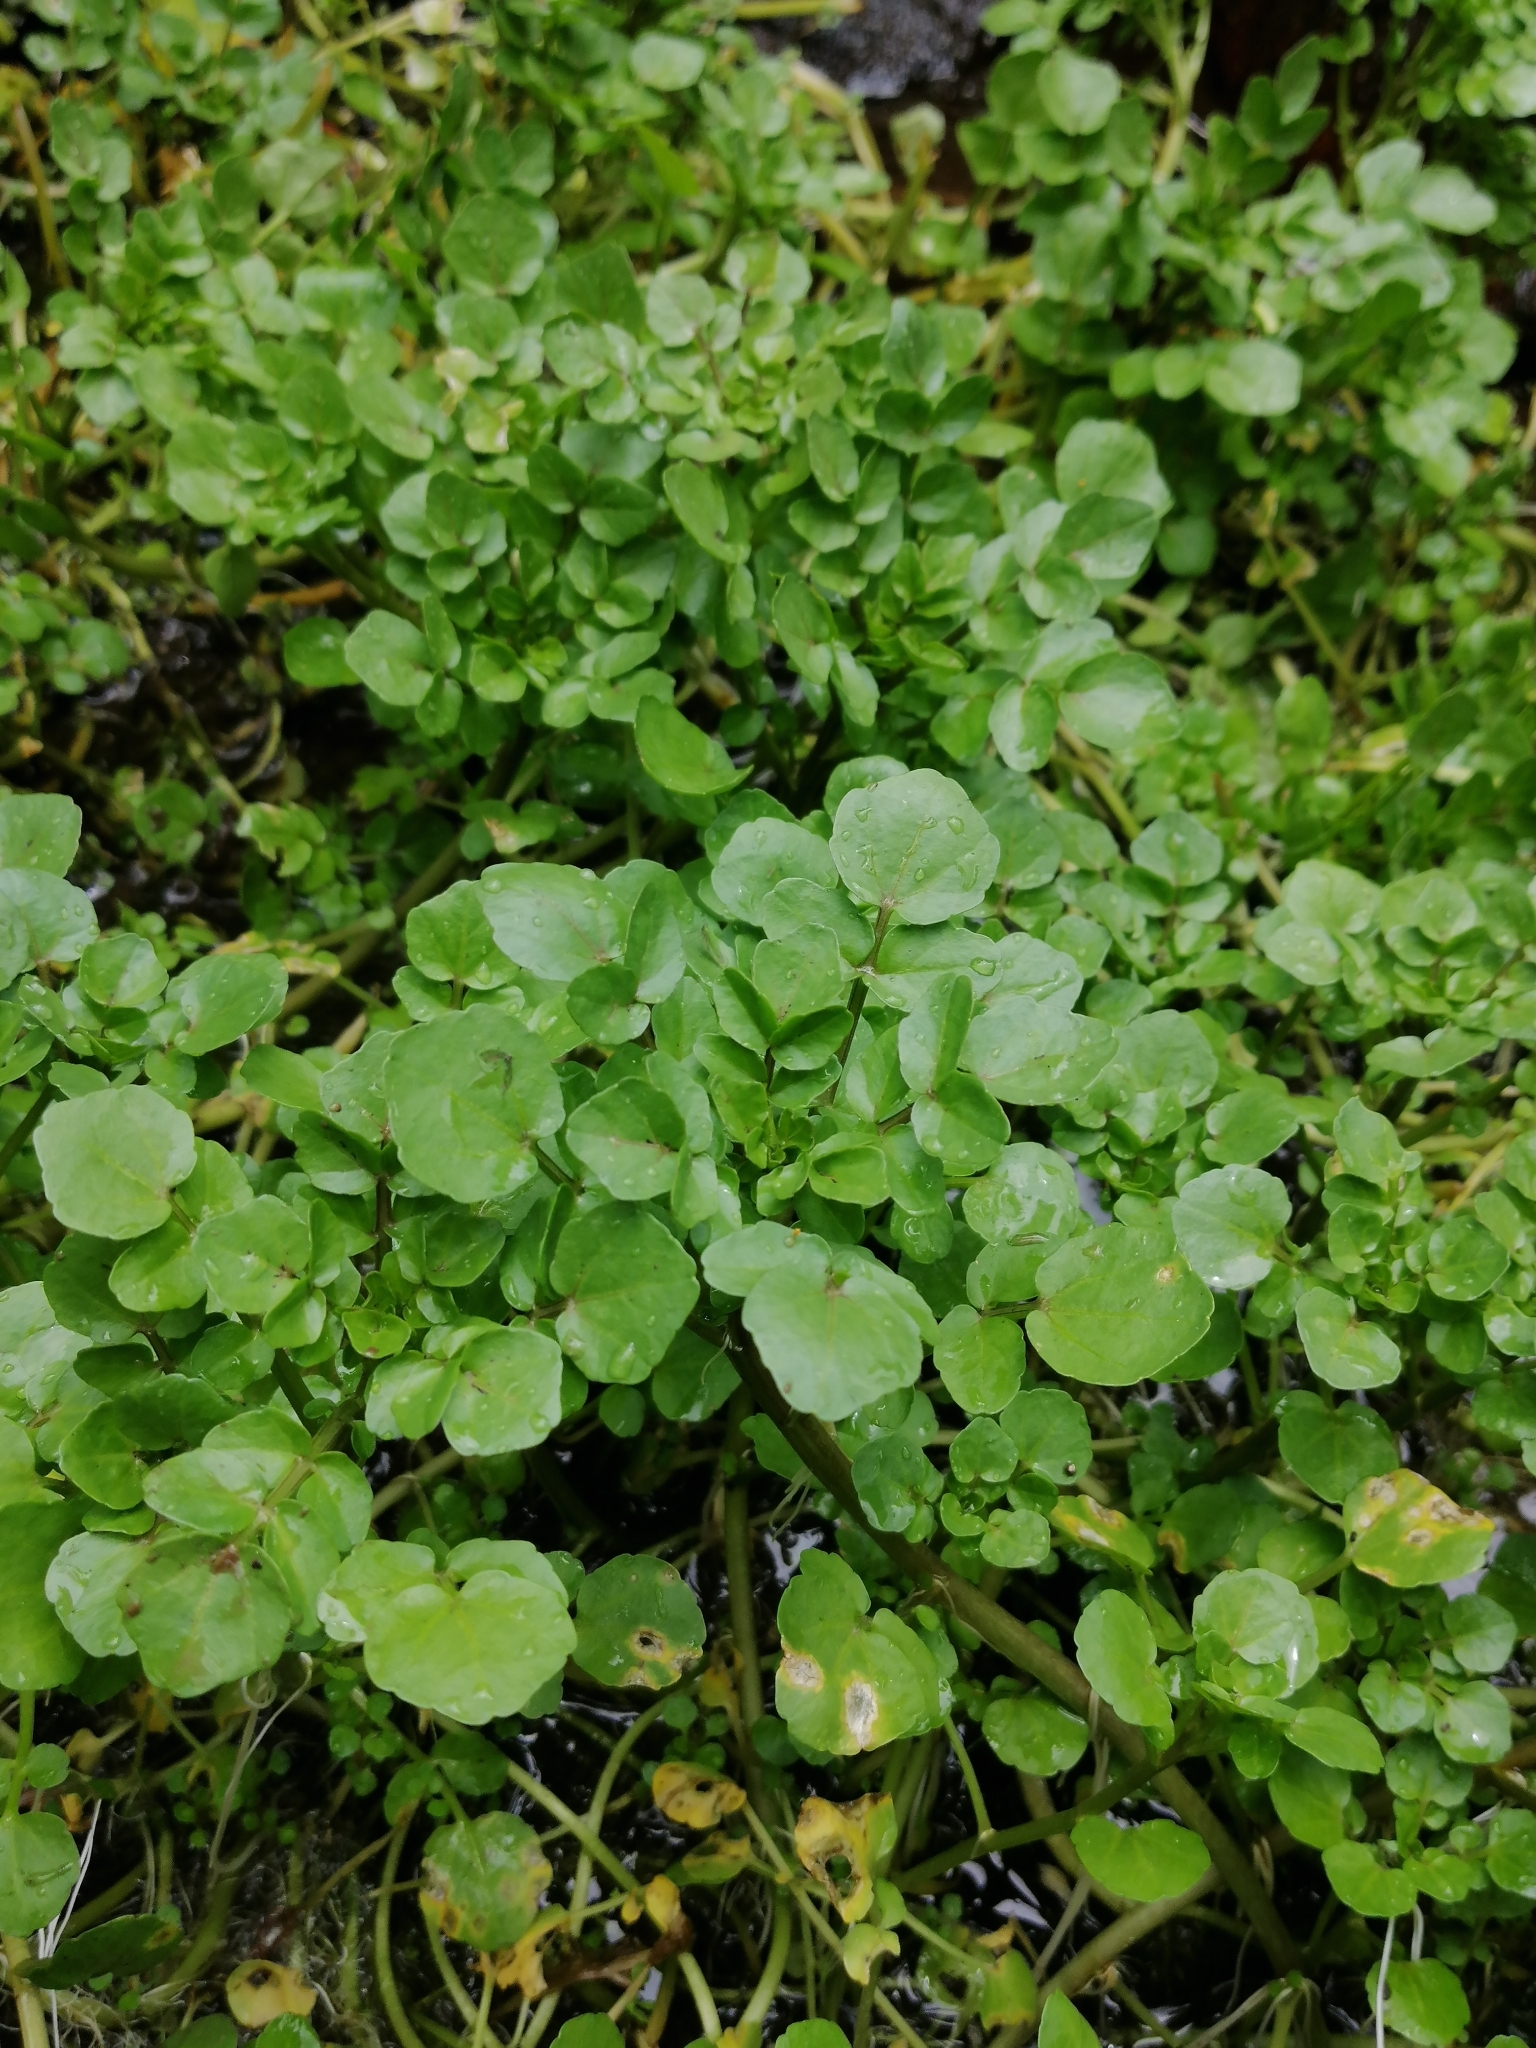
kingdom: Plantae
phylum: Tracheophyta
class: Magnoliopsida
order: Brassicales
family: Brassicaceae
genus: Nasturtium
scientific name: Nasturtium officinale
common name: Watercress
